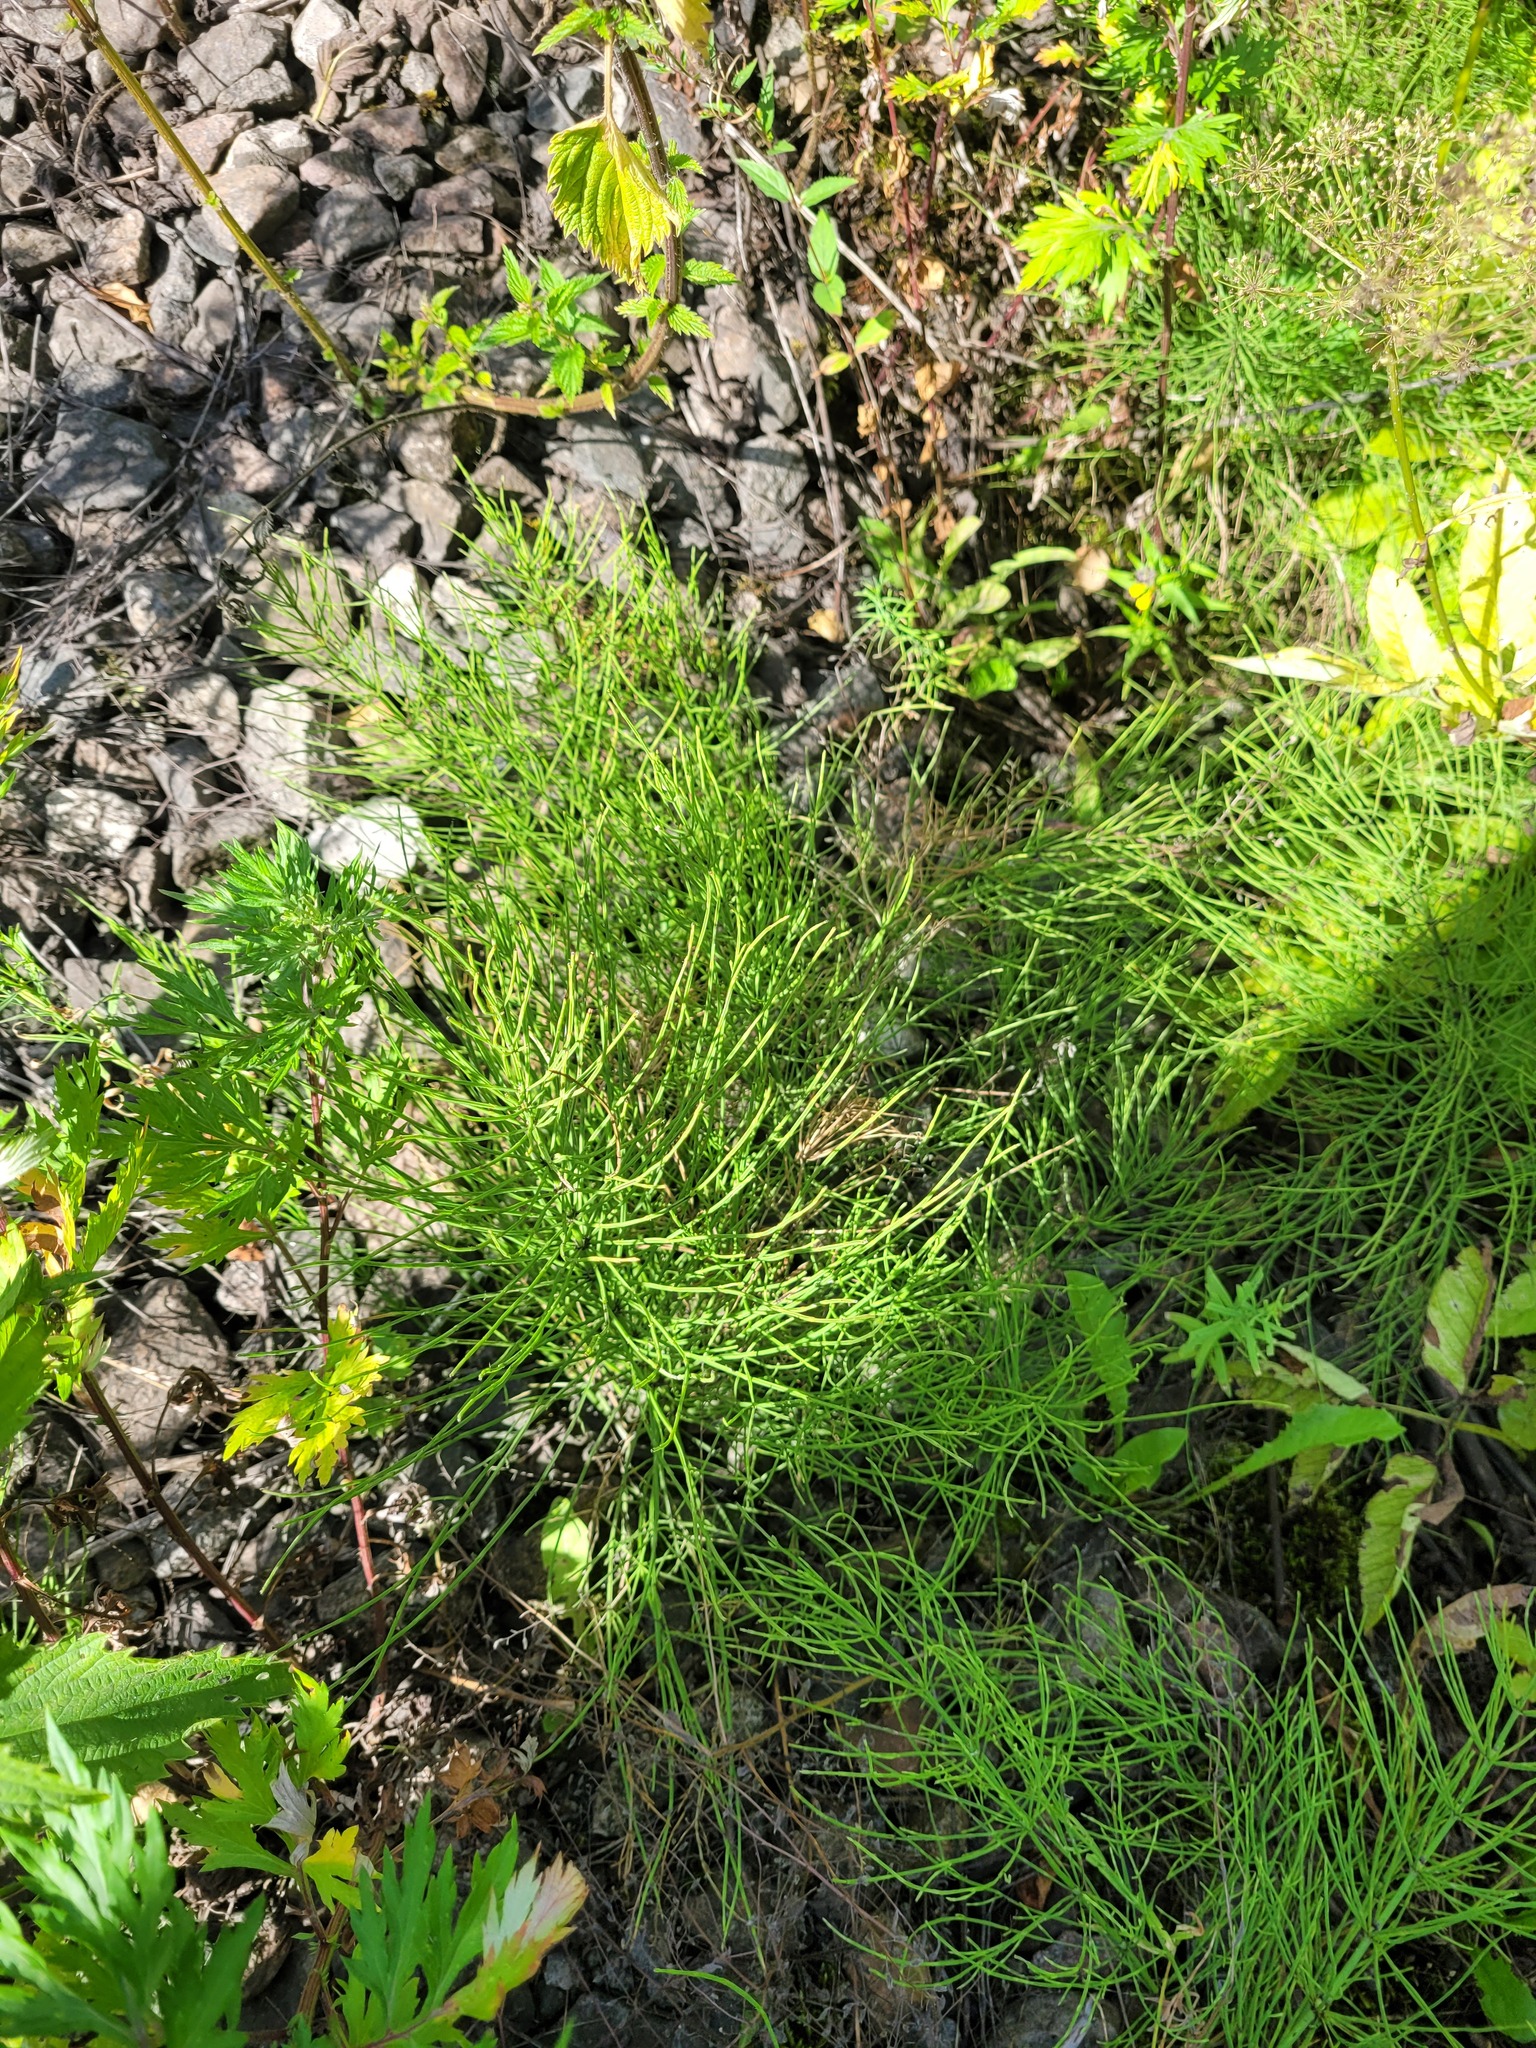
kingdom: Plantae
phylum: Tracheophyta
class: Polypodiopsida
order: Equisetales
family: Equisetaceae
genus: Equisetum
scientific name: Equisetum arvense
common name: Field horsetail
